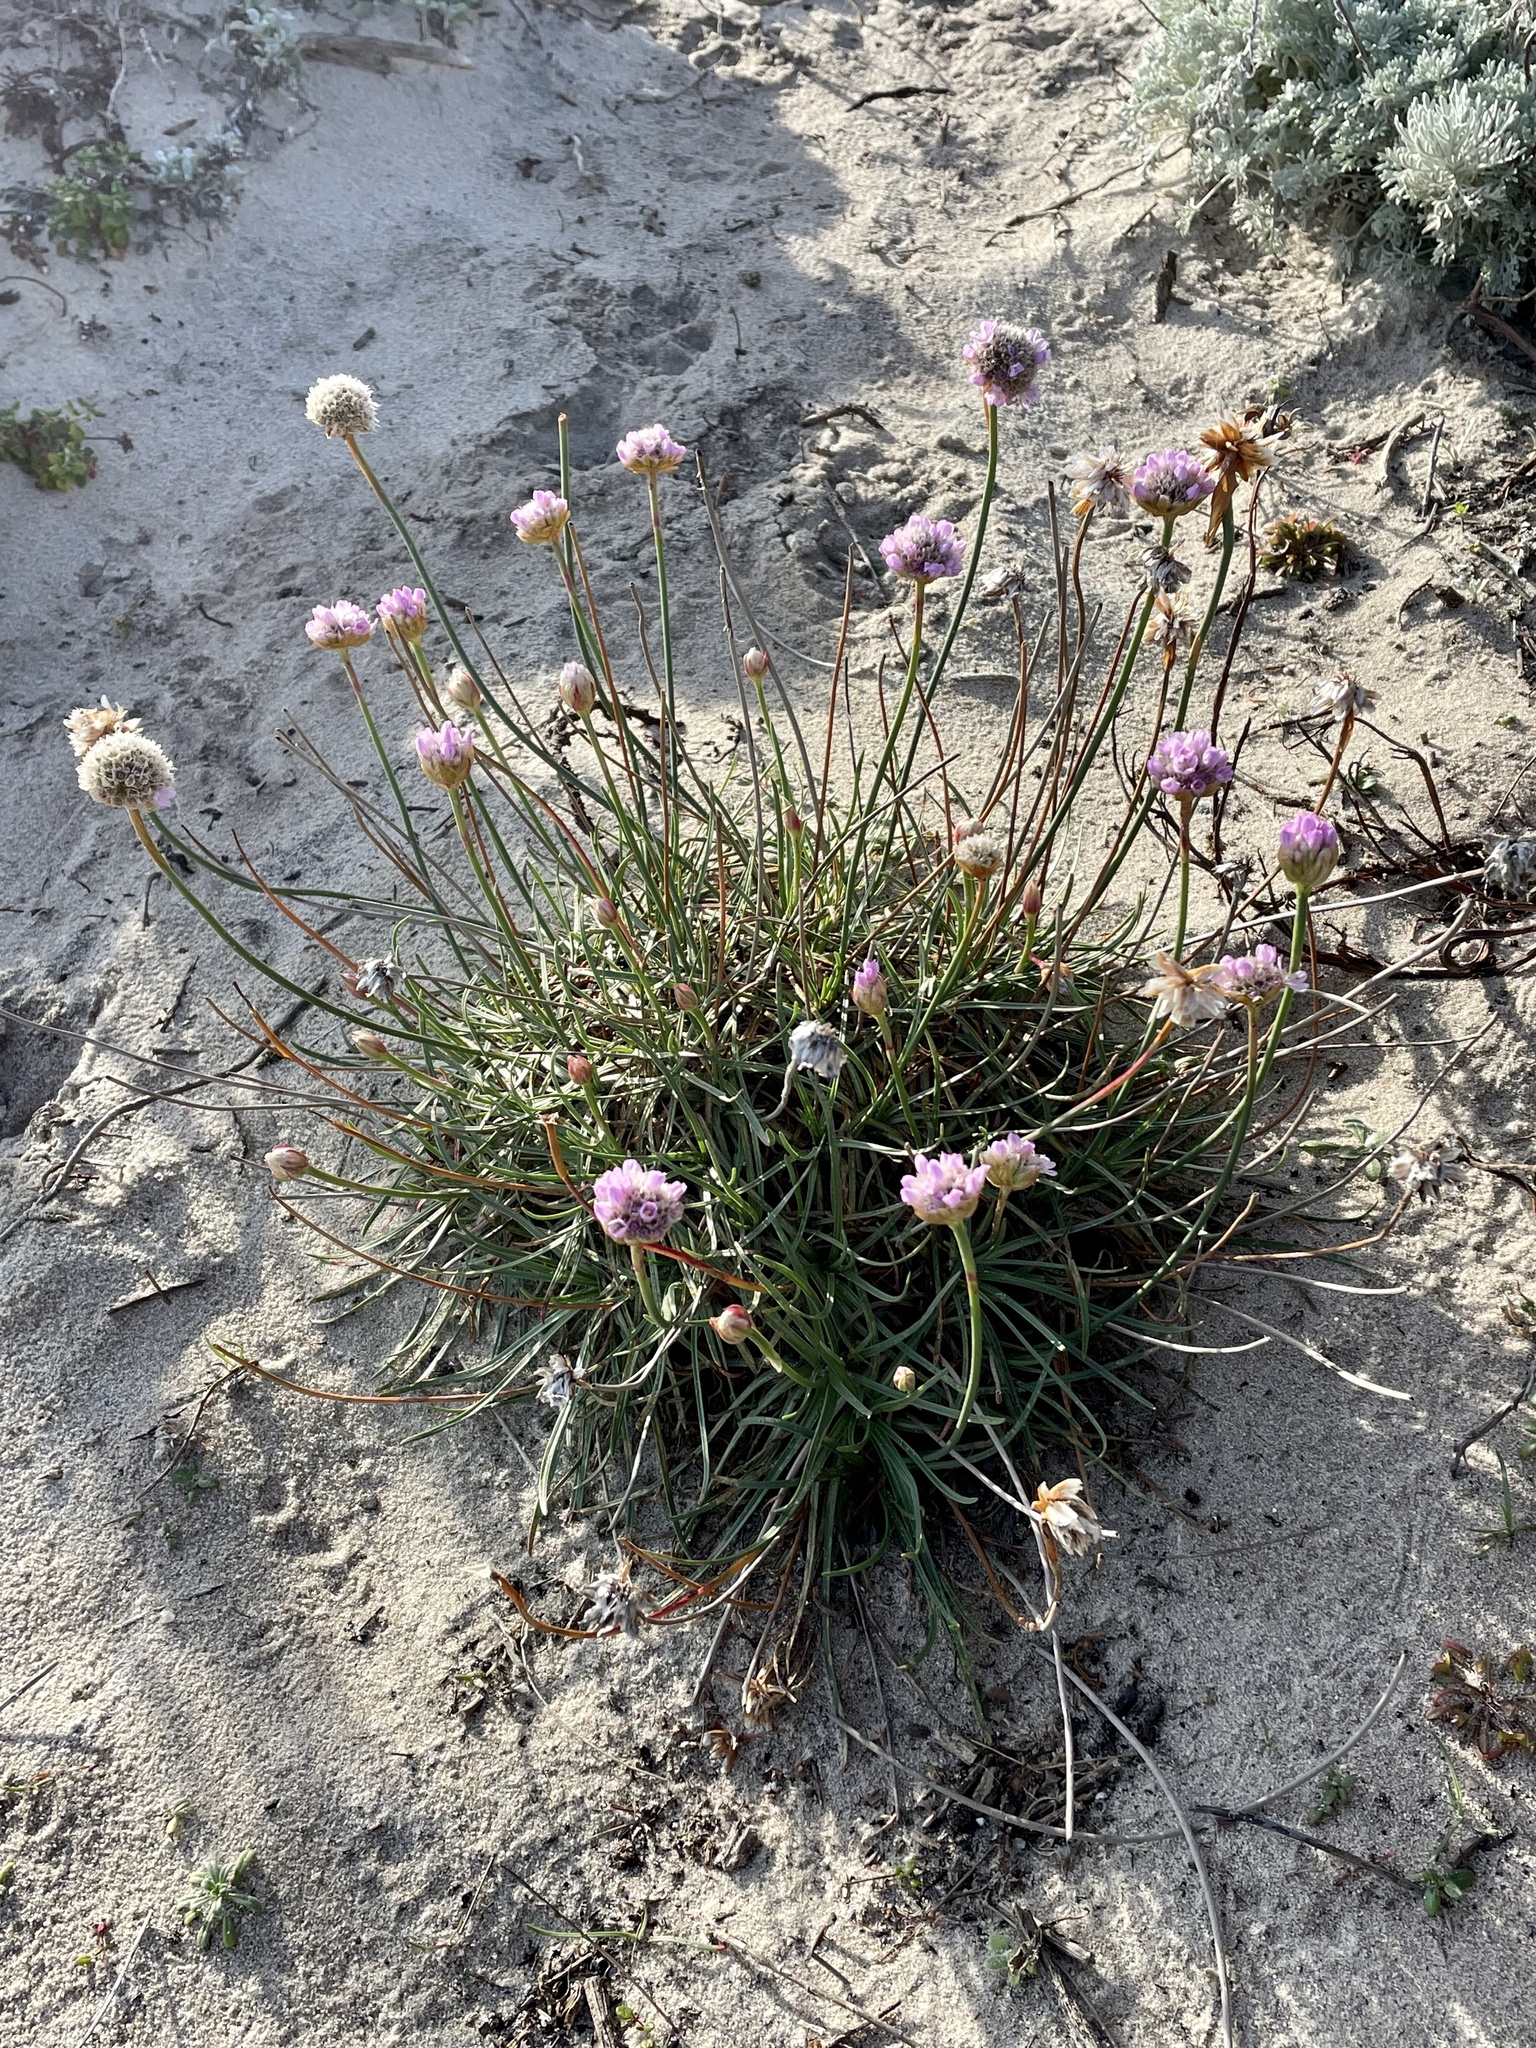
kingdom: Plantae
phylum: Tracheophyta
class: Magnoliopsida
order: Caryophyllales
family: Plumbaginaceae
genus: Armeria
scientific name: Armeria maritima
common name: Thrift
